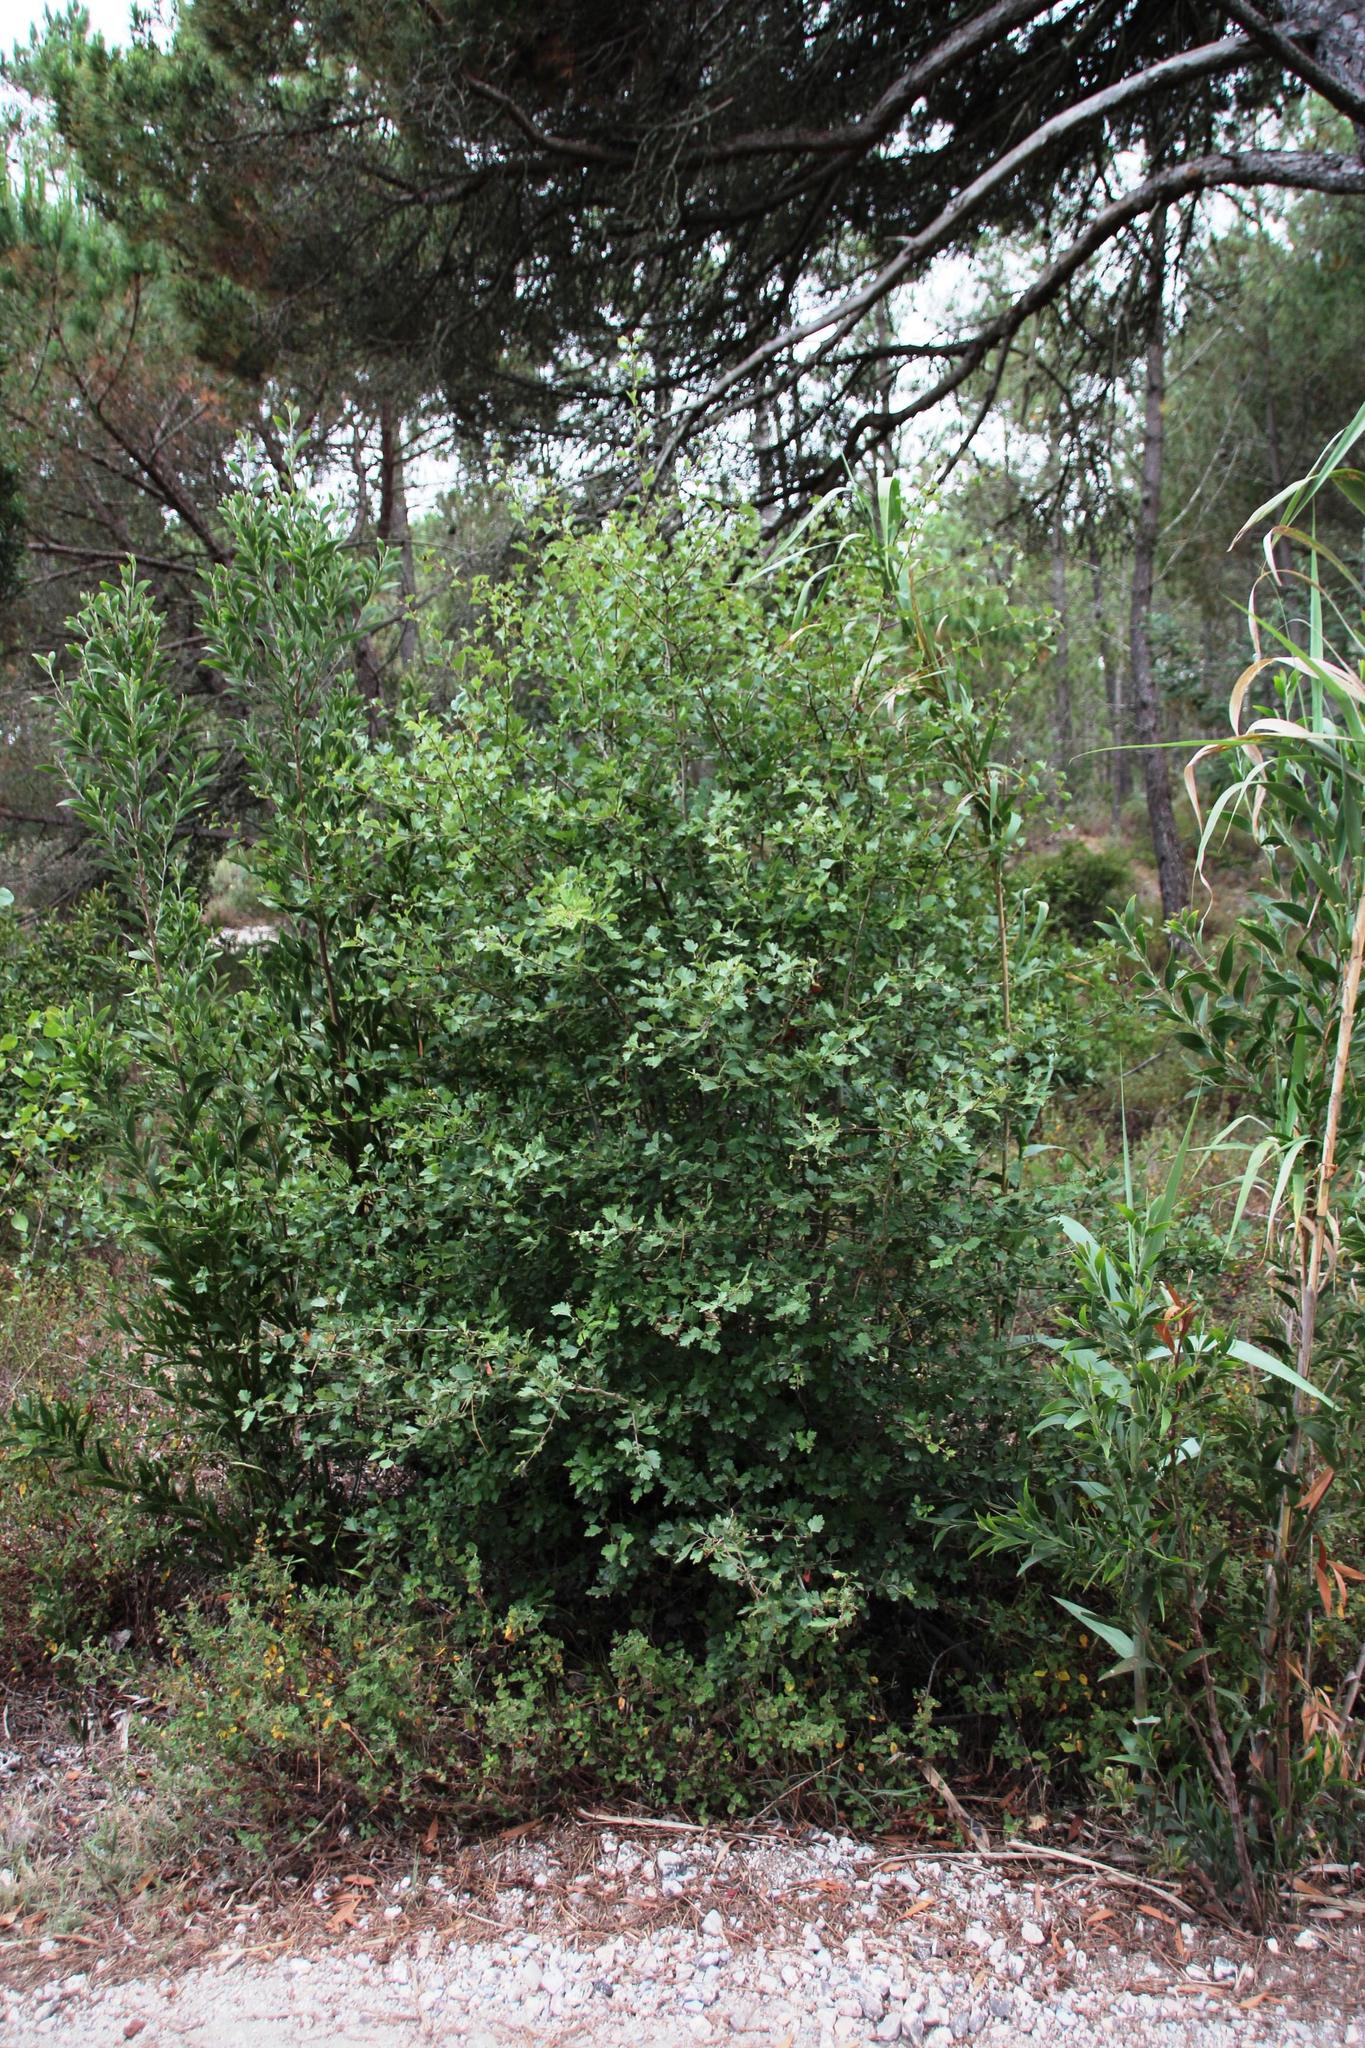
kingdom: Plantae
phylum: Tracheophyta
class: Magnoliopsida
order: Rosales
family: Rosaceae
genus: Crataegus
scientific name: Crataegus monogyna
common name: Hawthorn
